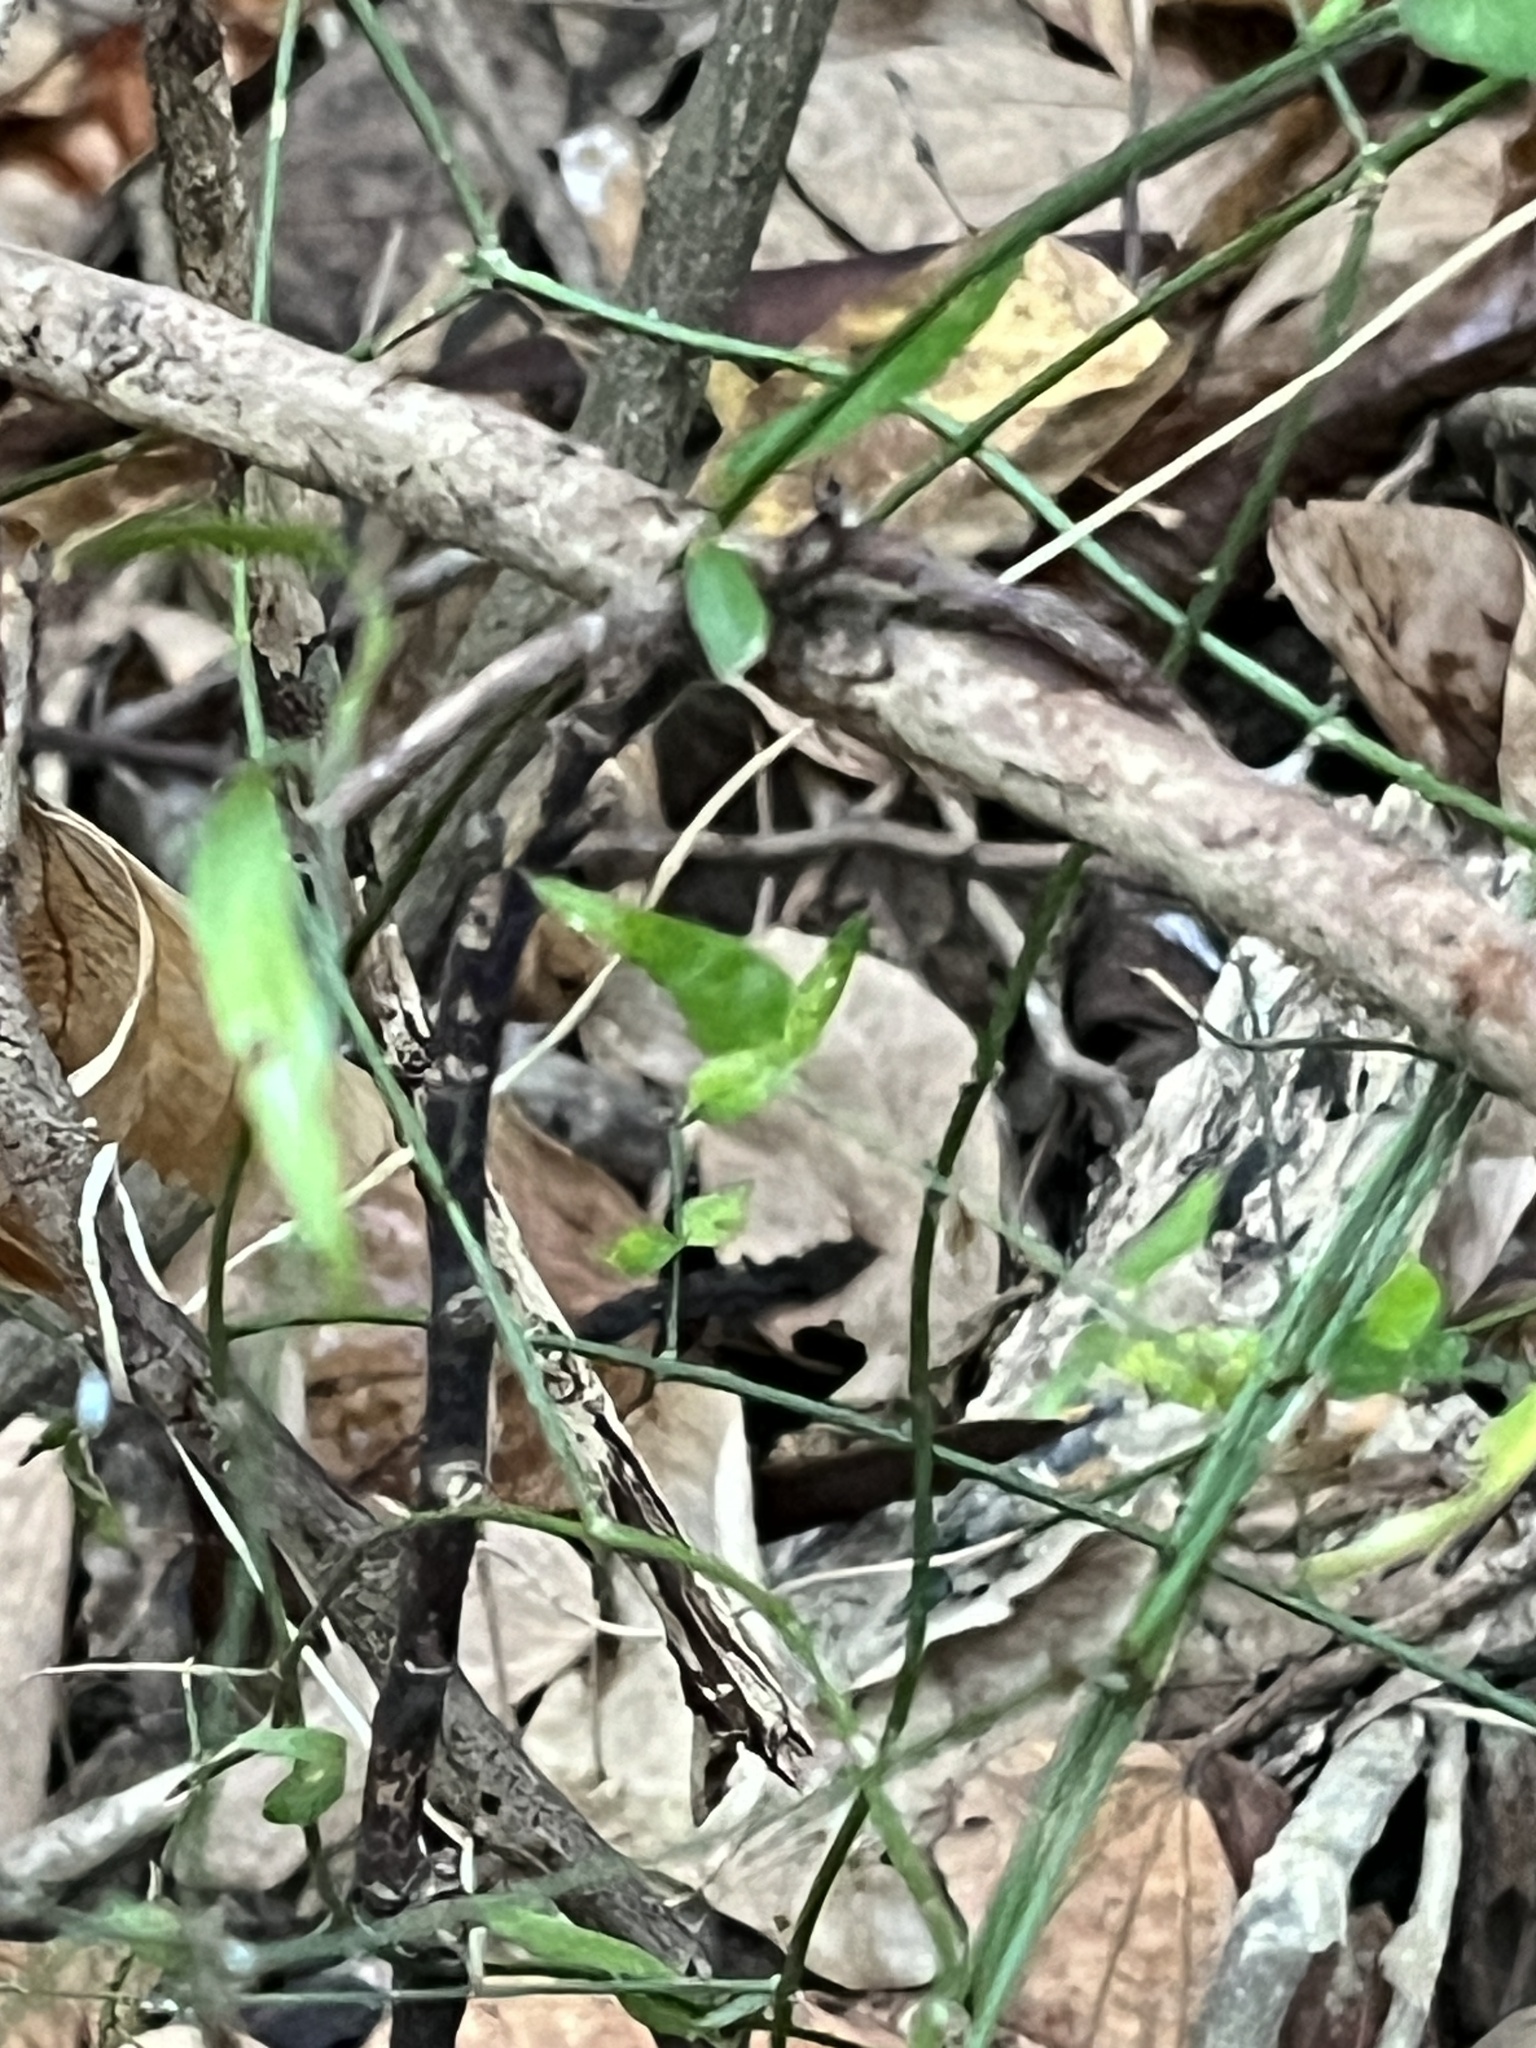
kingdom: Plantae
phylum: Tracheophyta
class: Magnoliopsida
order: Lamiales
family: Oleaceae
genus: Jasminum
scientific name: Jasminum nervosum
